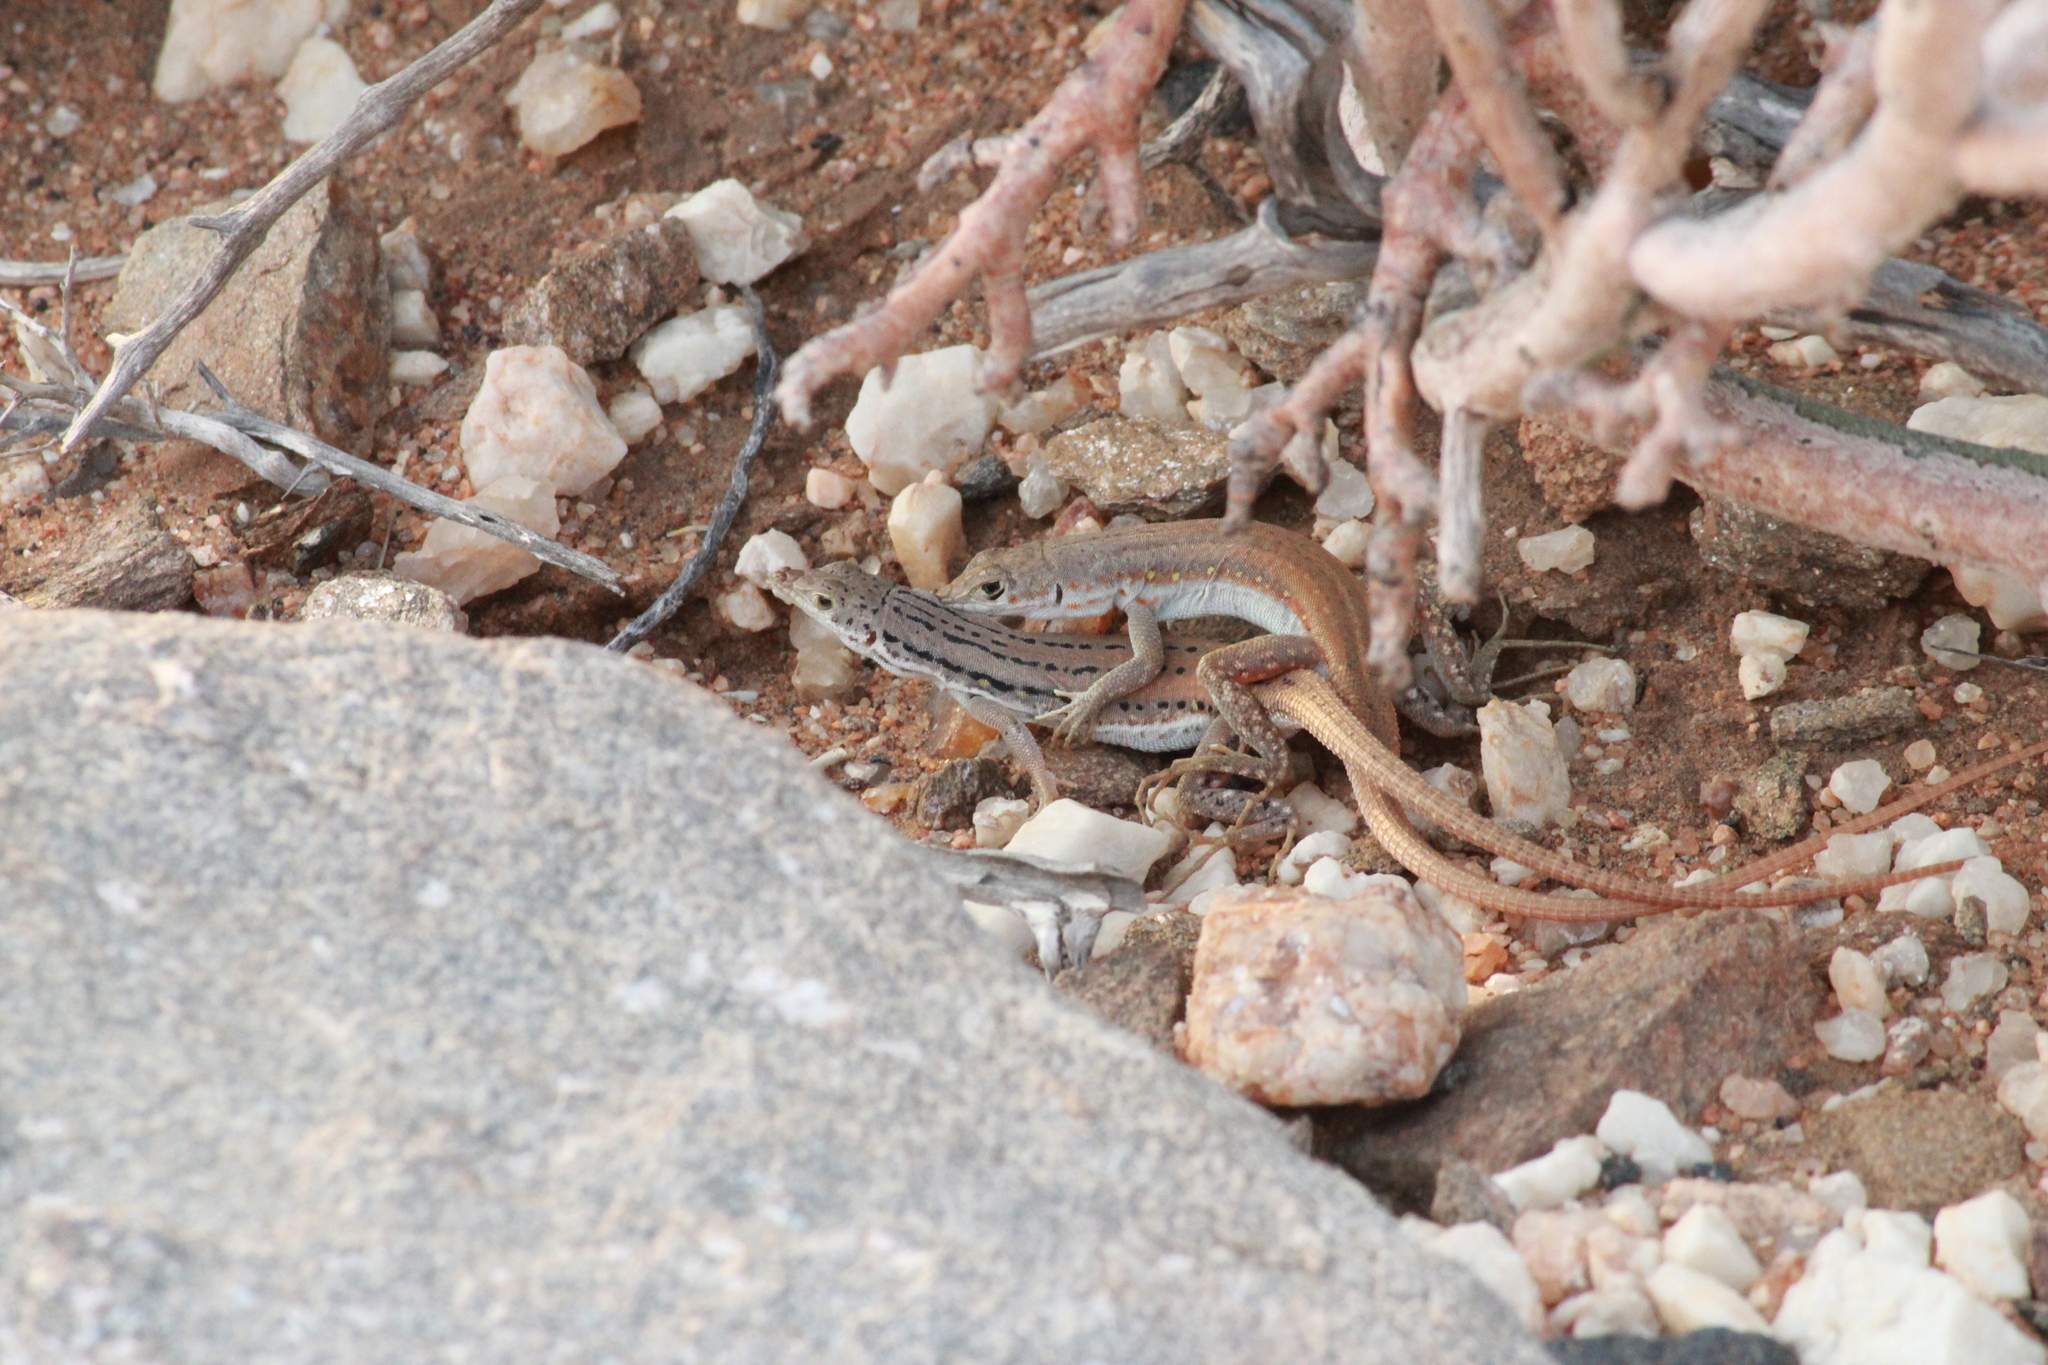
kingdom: Animalia
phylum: Chordata
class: Squamata
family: Lacertidae
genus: Pedioplanis
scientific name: Pedioplanis lineoocellata
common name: Spotted sand lizard
